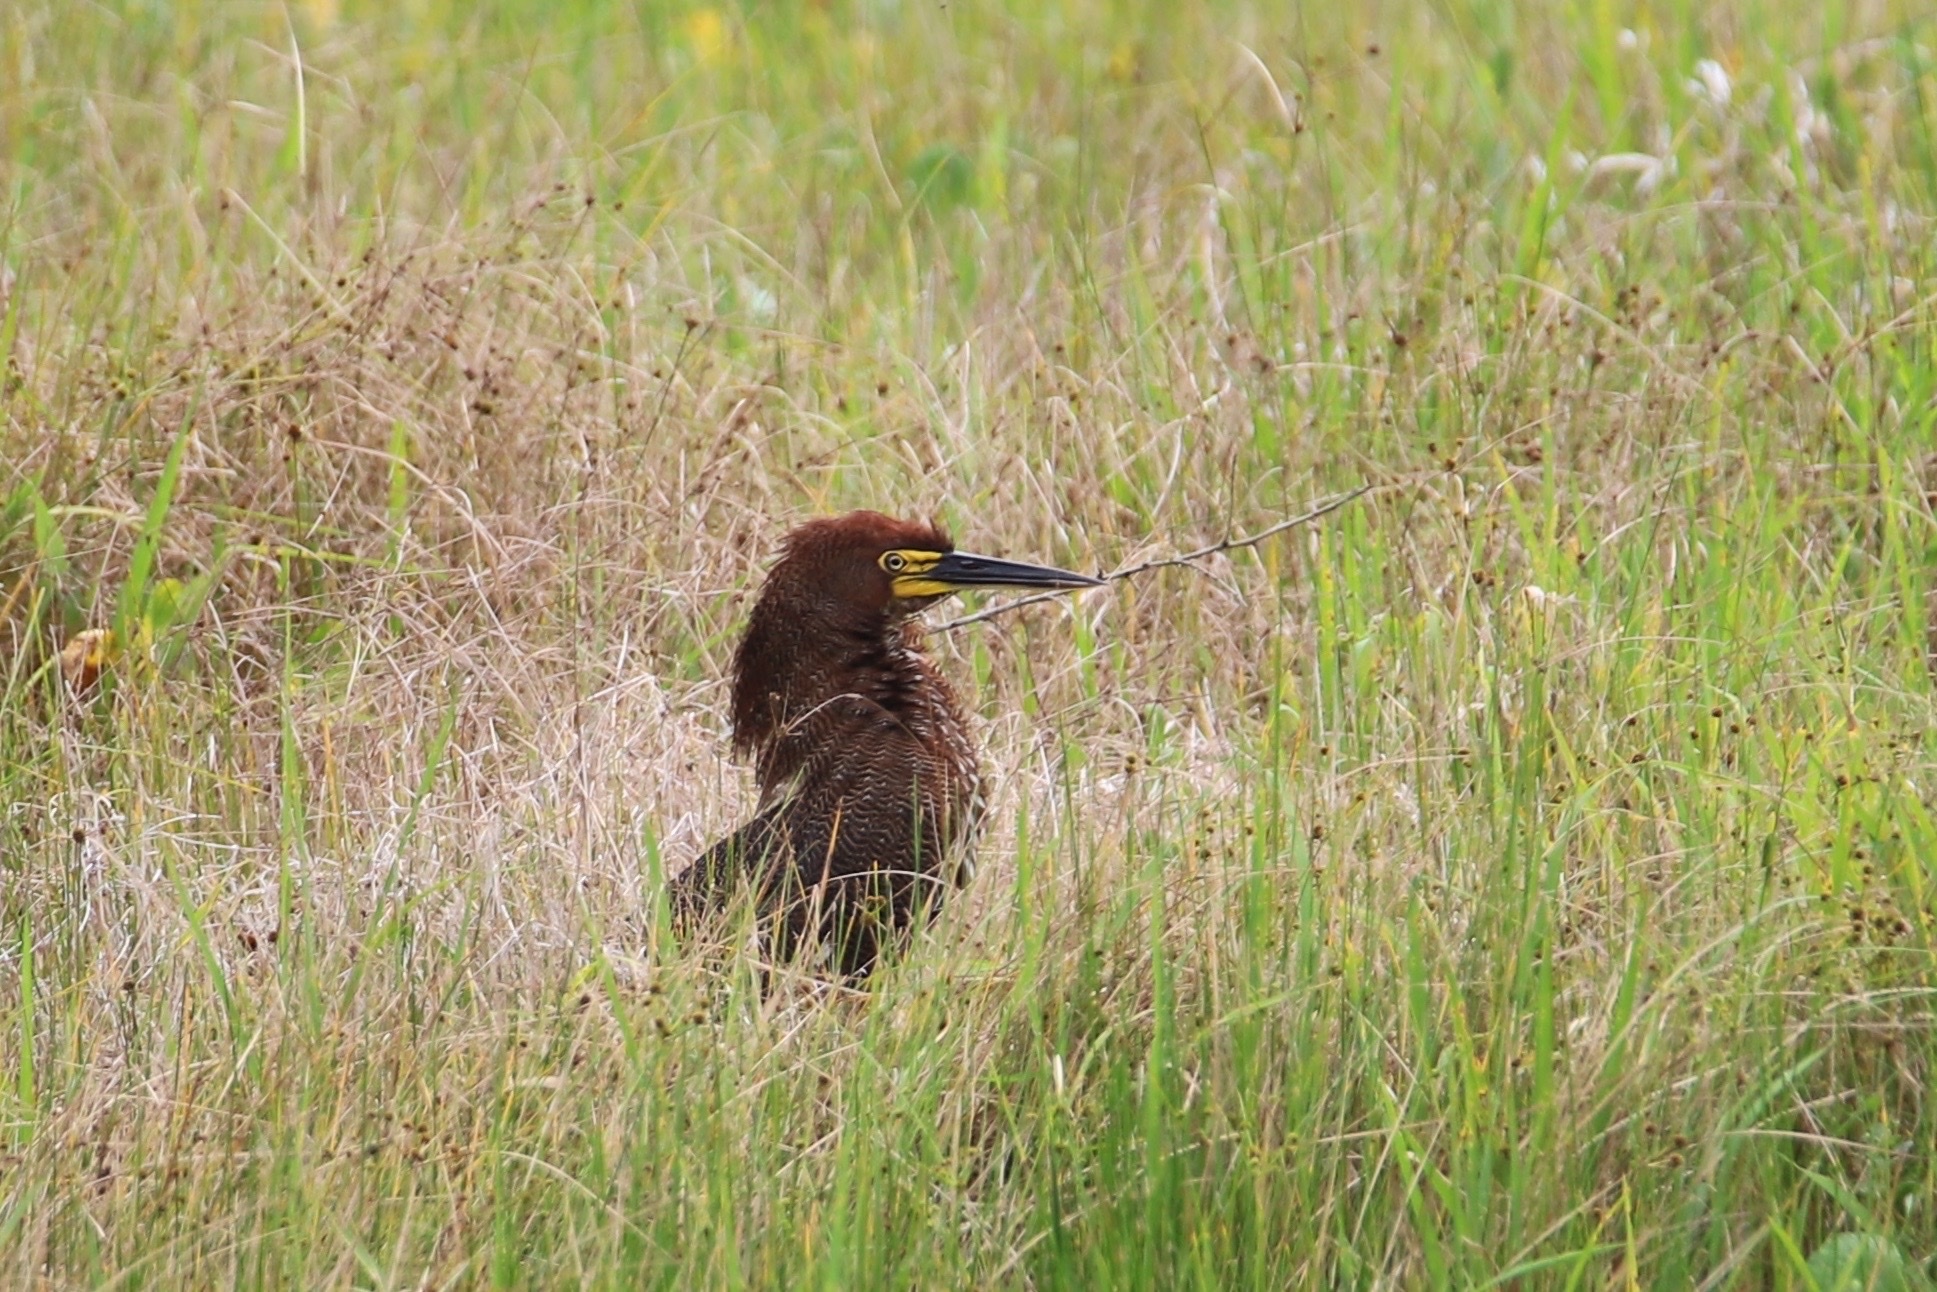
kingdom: Animalia
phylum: Chordata
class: Aves
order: Pelecaniformes
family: Ardeidae
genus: Tigrisoma
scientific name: Tigrisoma lineatum
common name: Rufescent tiger-heron
